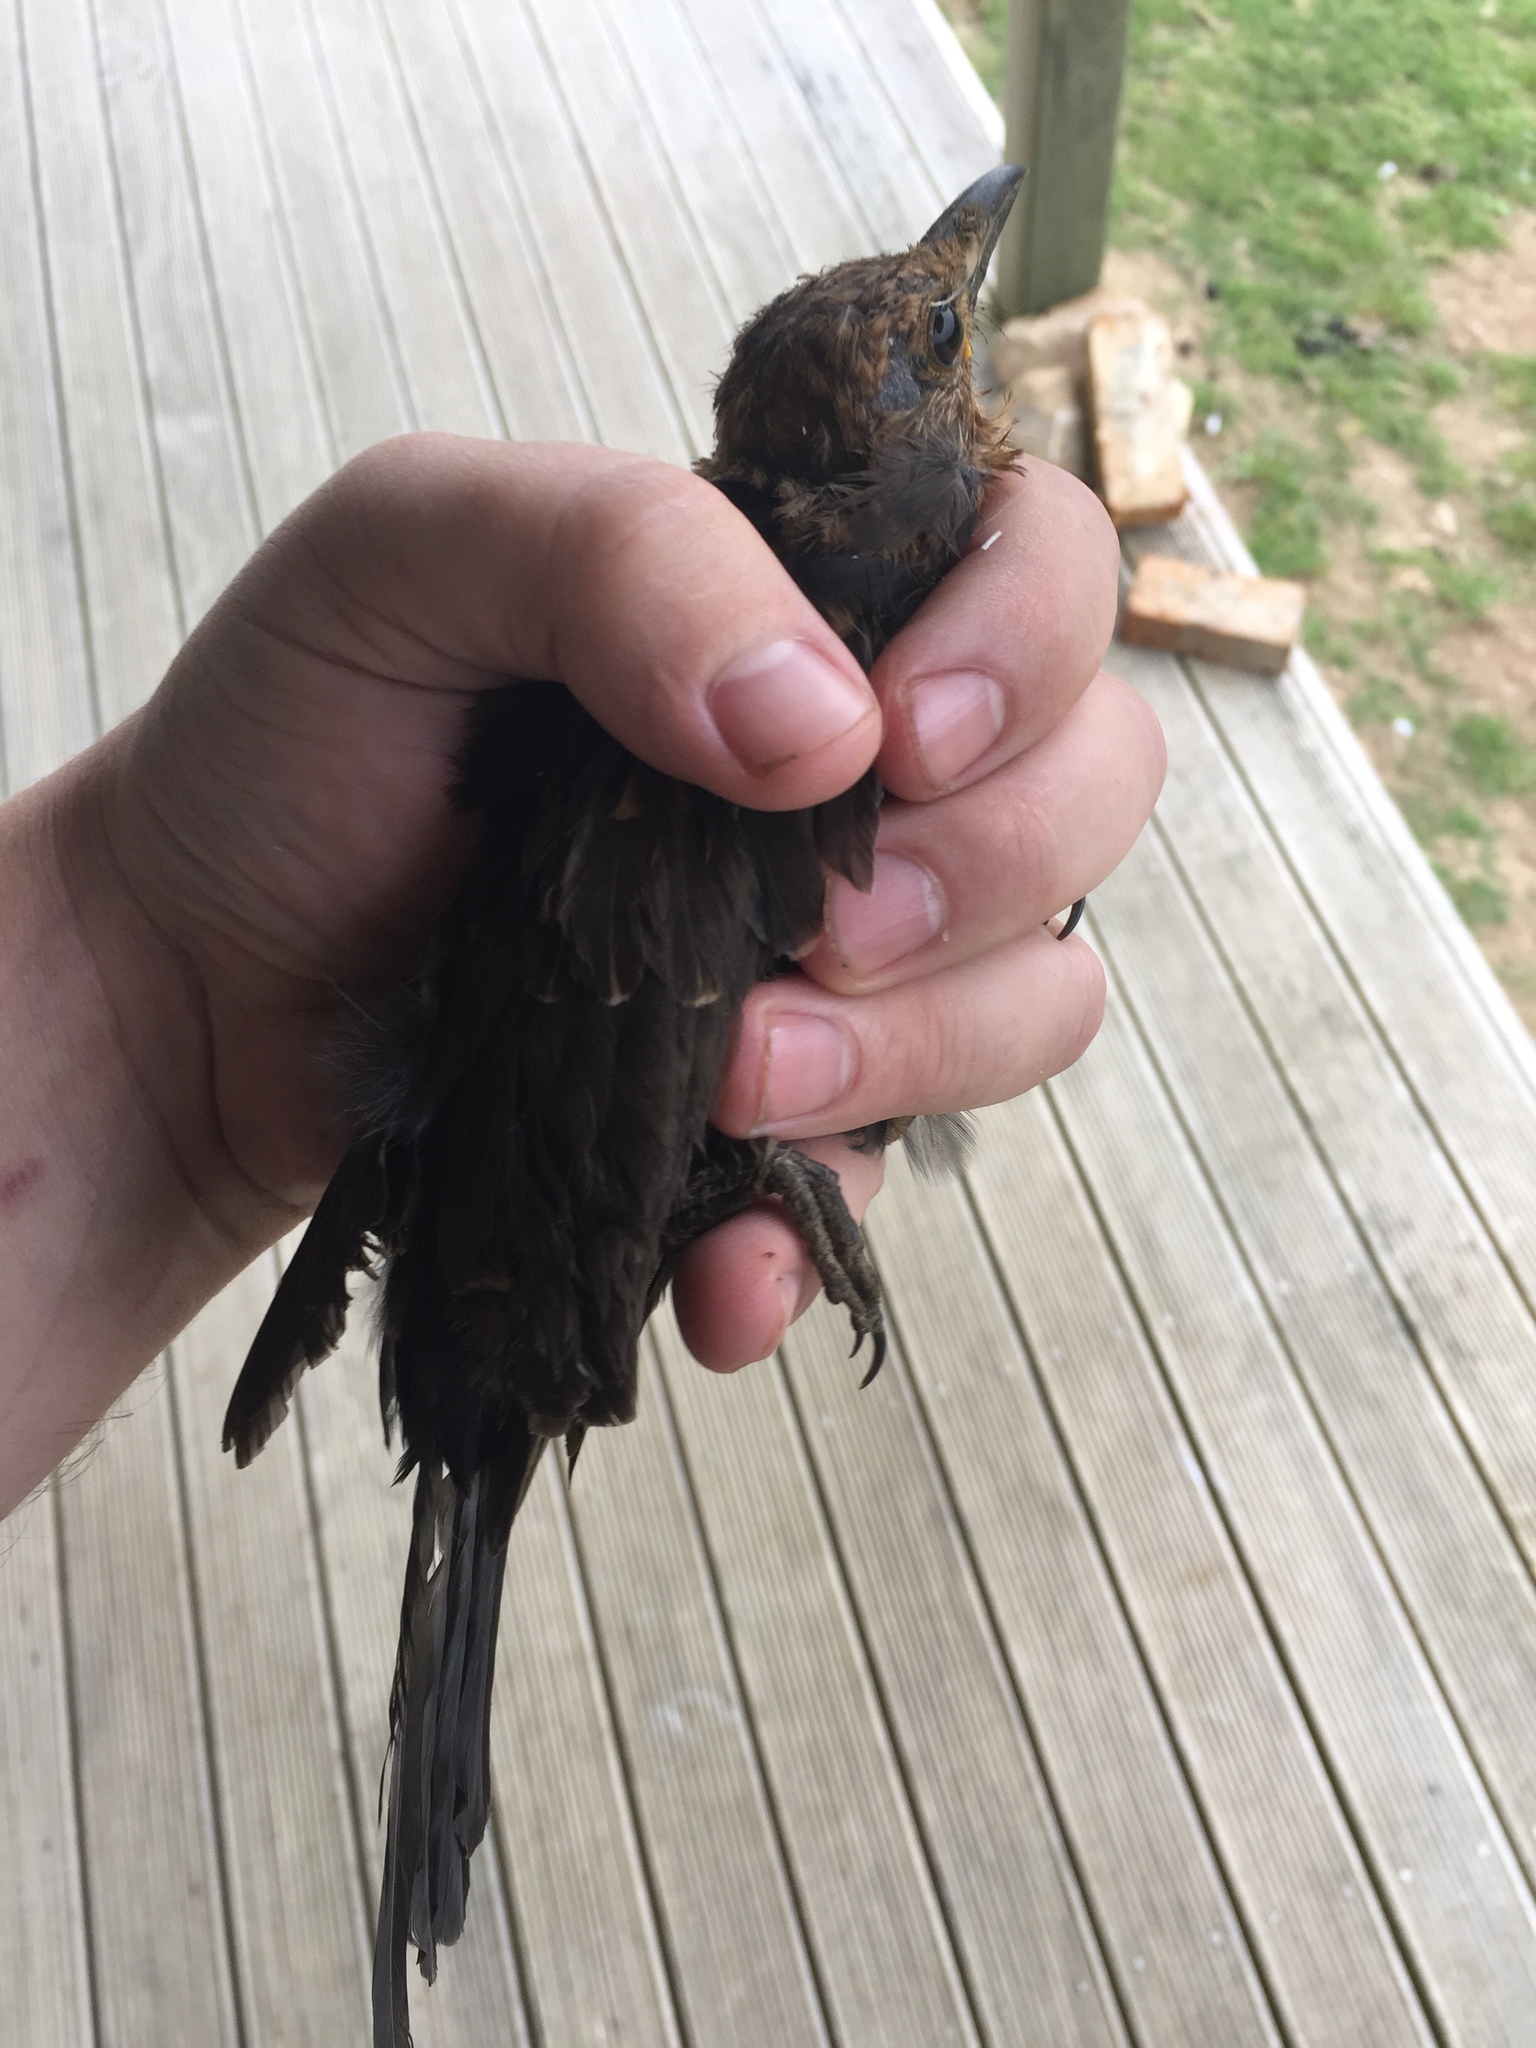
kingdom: Animalia
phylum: Chordata
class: Aves
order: Passeriformes
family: Turdidae
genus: Turdus
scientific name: Turdus merula
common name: Common blackbird
